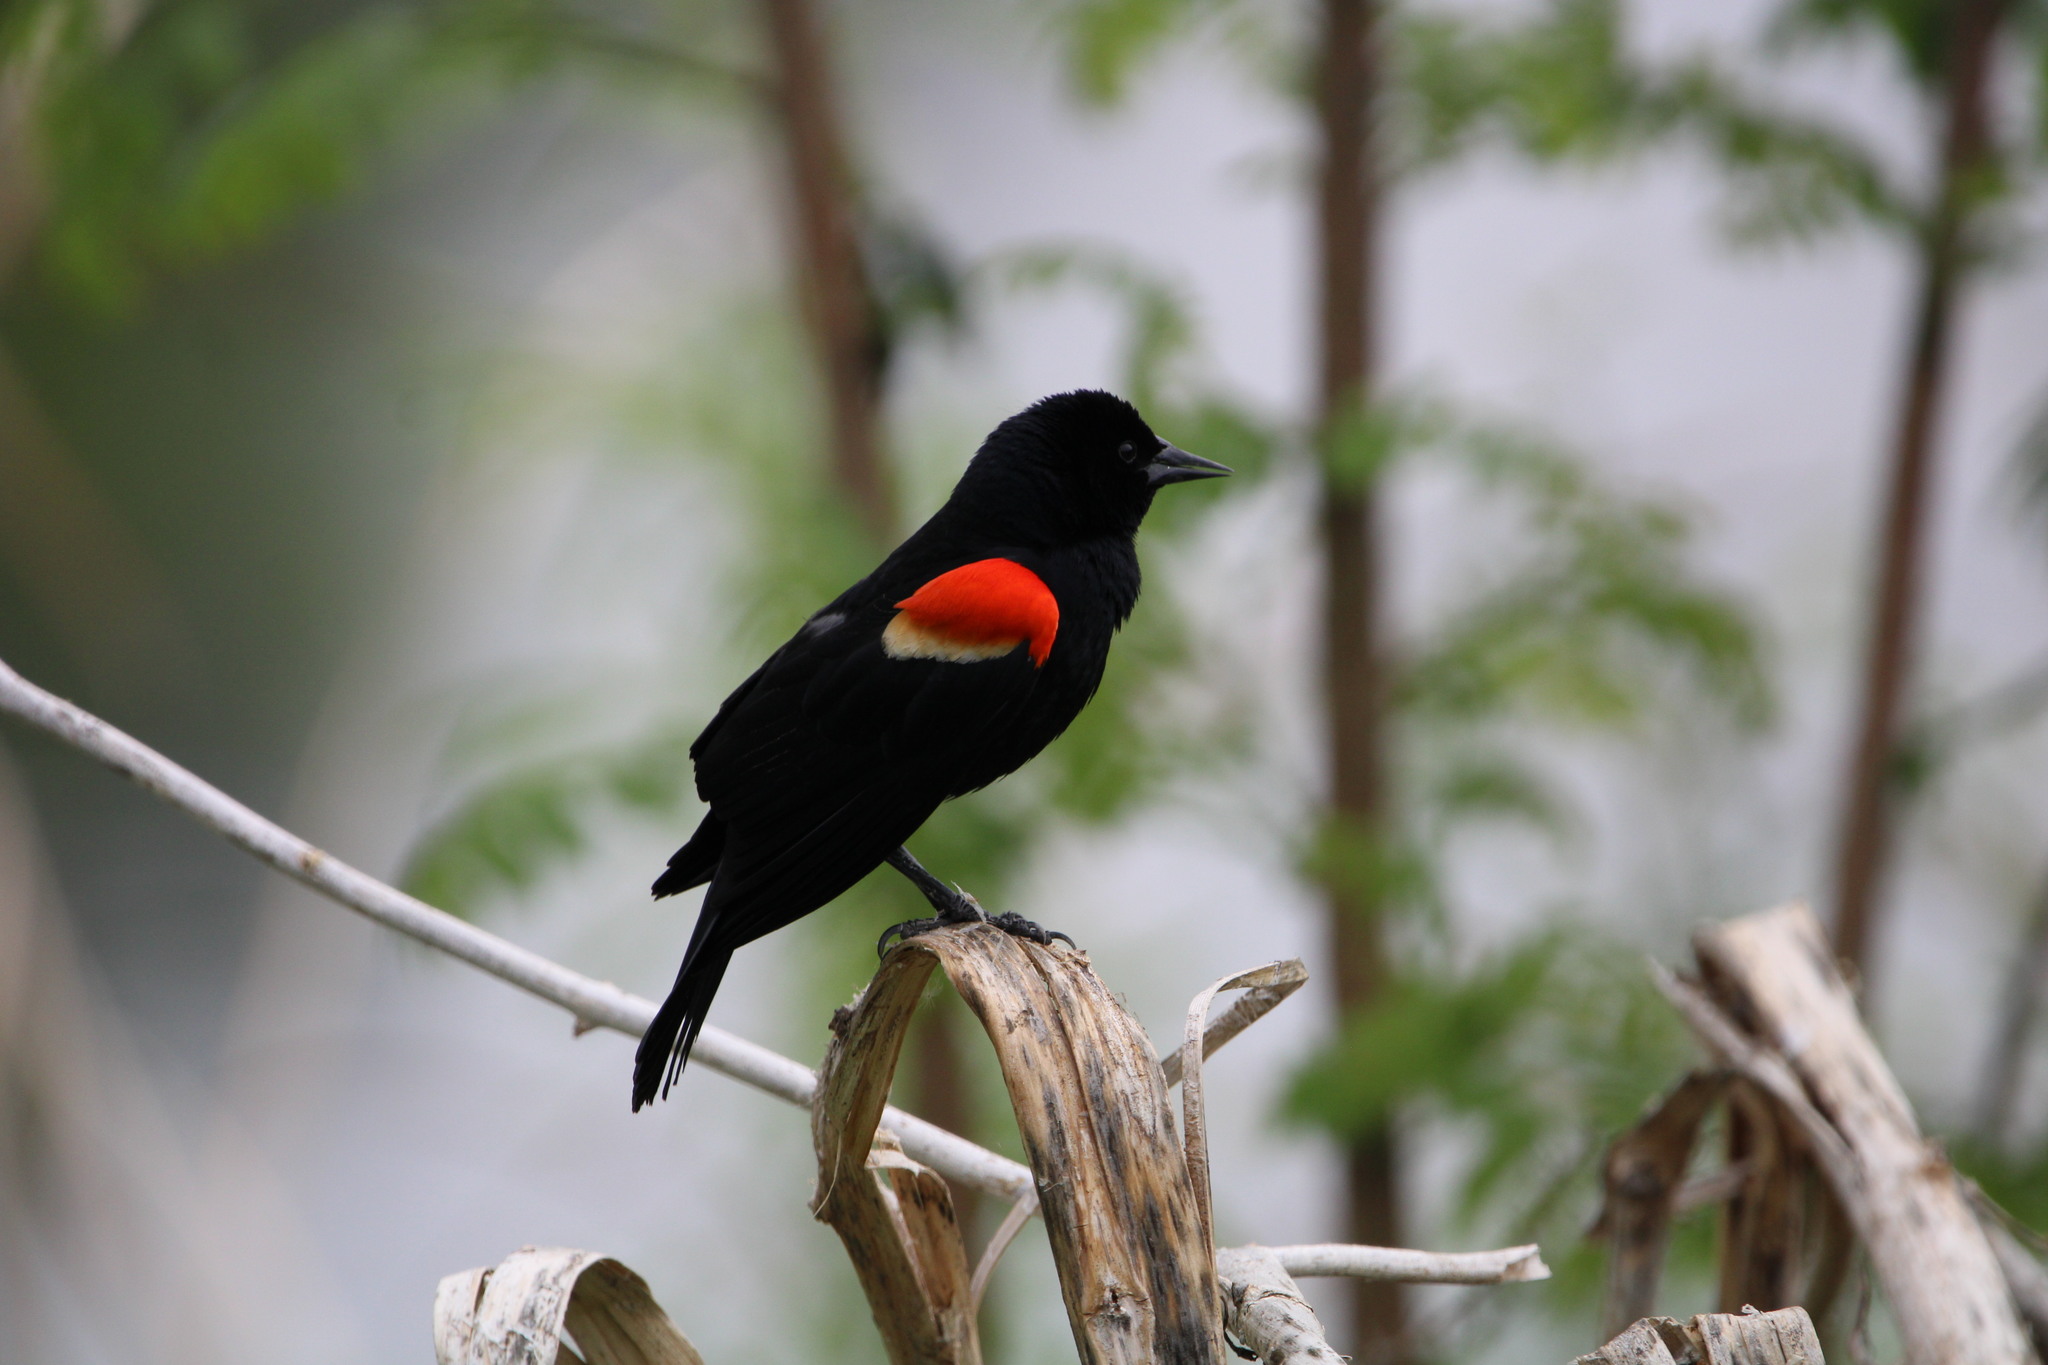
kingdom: Animalia
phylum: Chordata
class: Aves
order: Passeriformes
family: Icteridae
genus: Agelaius
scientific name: Agelaius phoeniceus
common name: Red-winged blackbird
